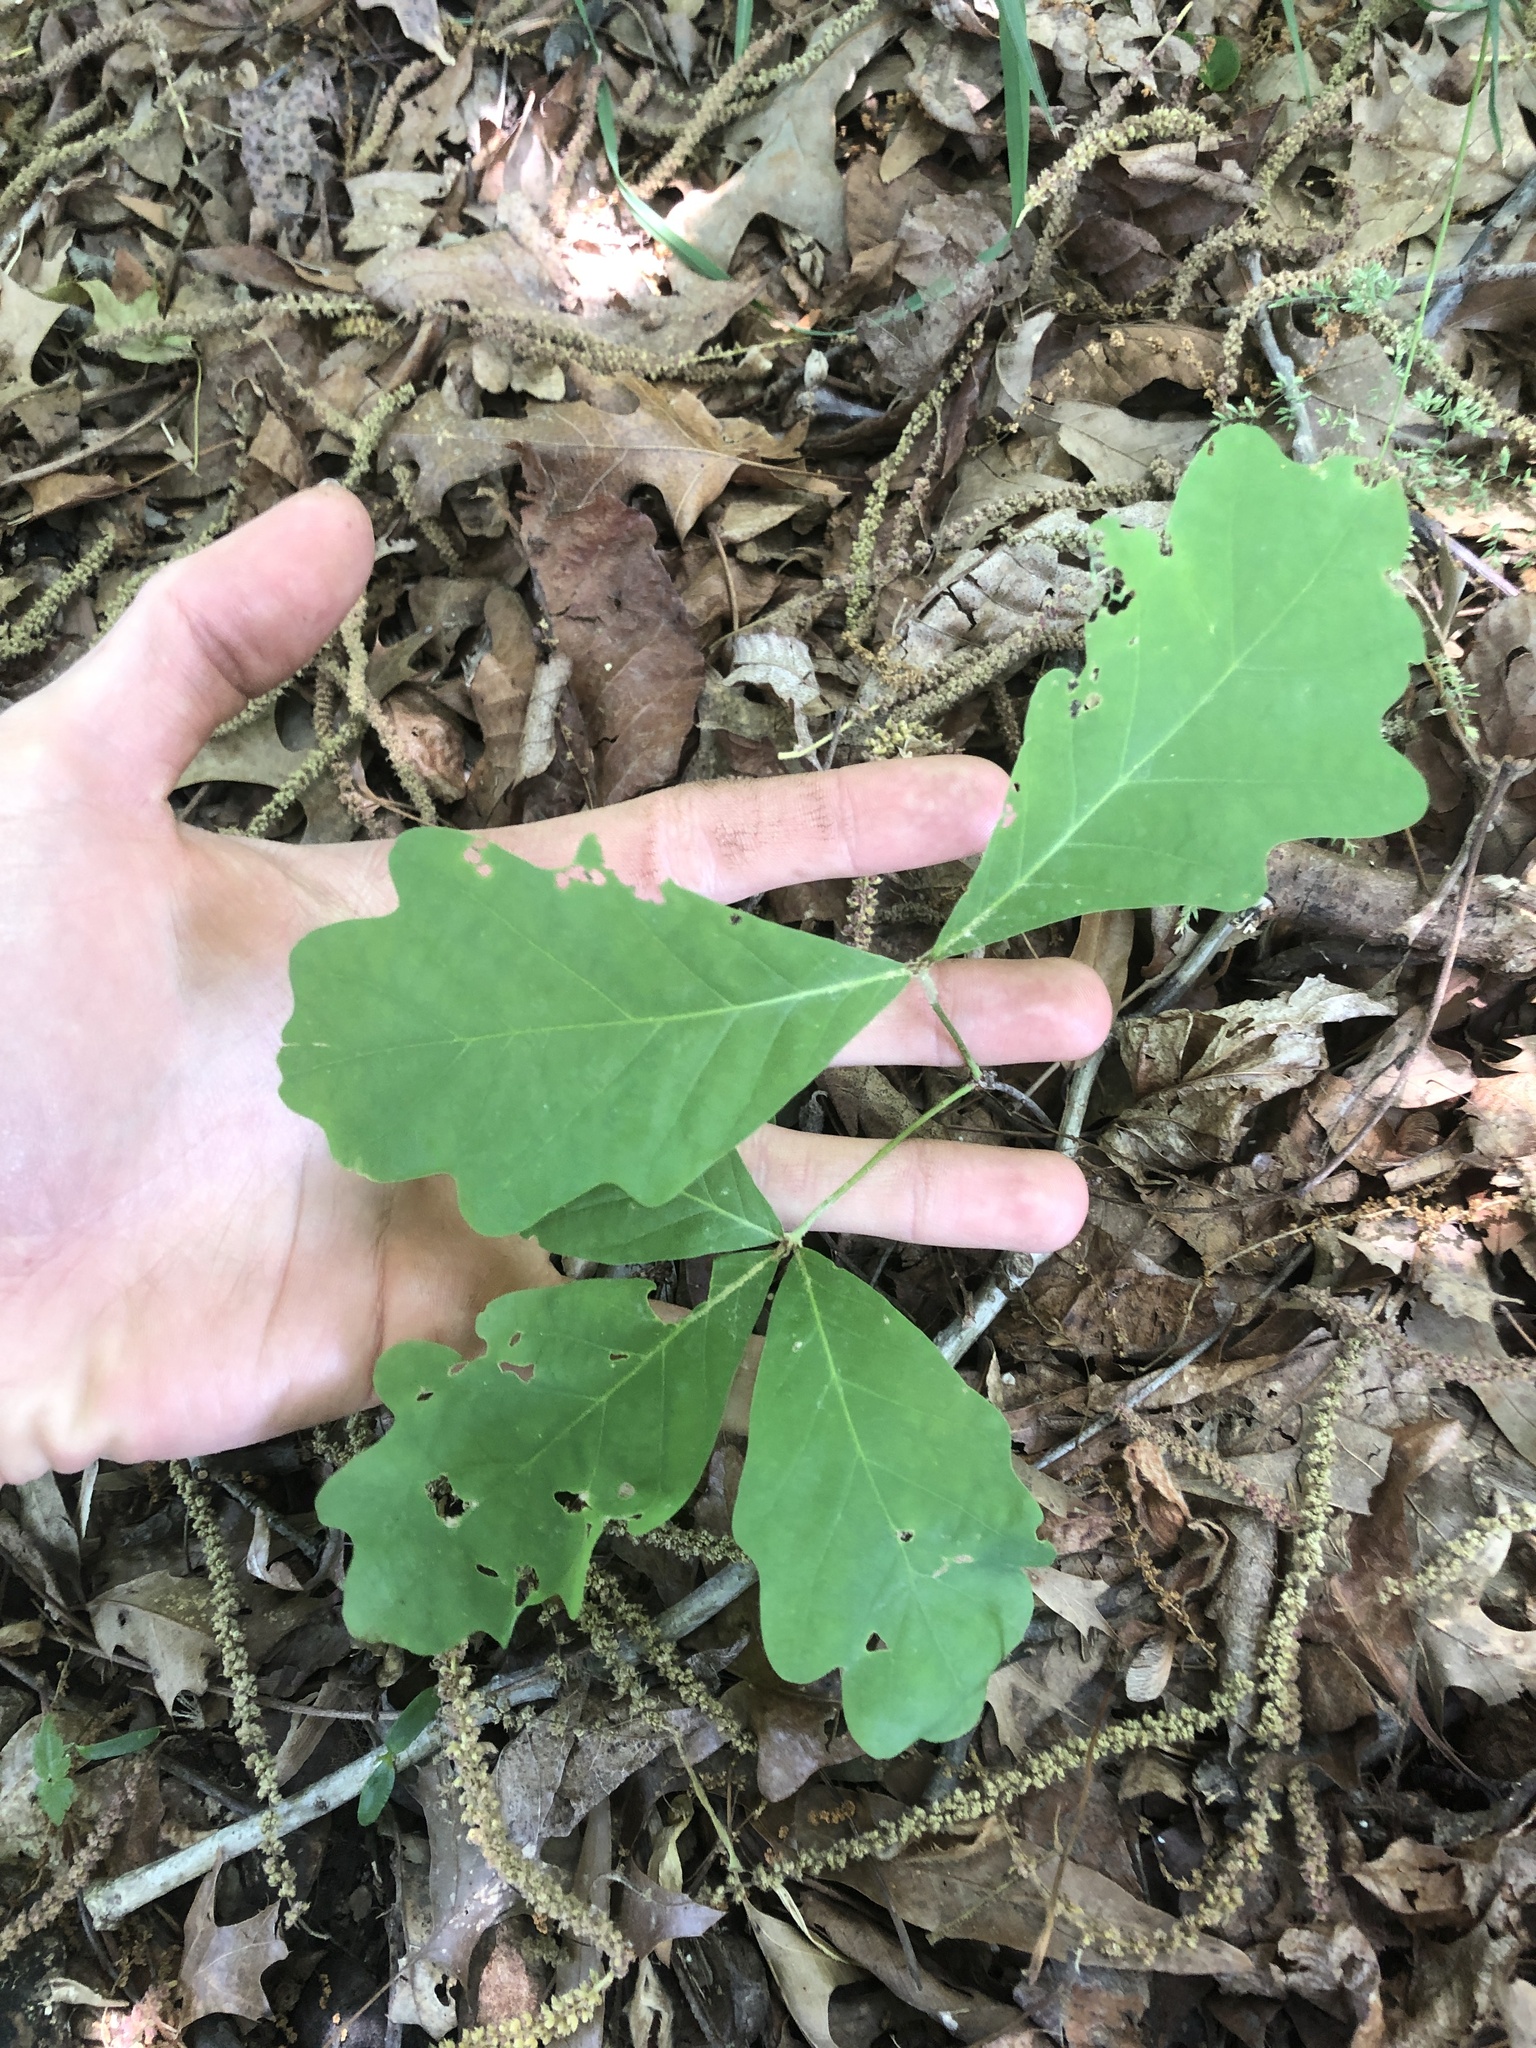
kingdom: Plantae
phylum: Tracheophyta
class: Magnoliopsida
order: Fagales
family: Fagaceae
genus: Quercus
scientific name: Quercus alba
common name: White oak
